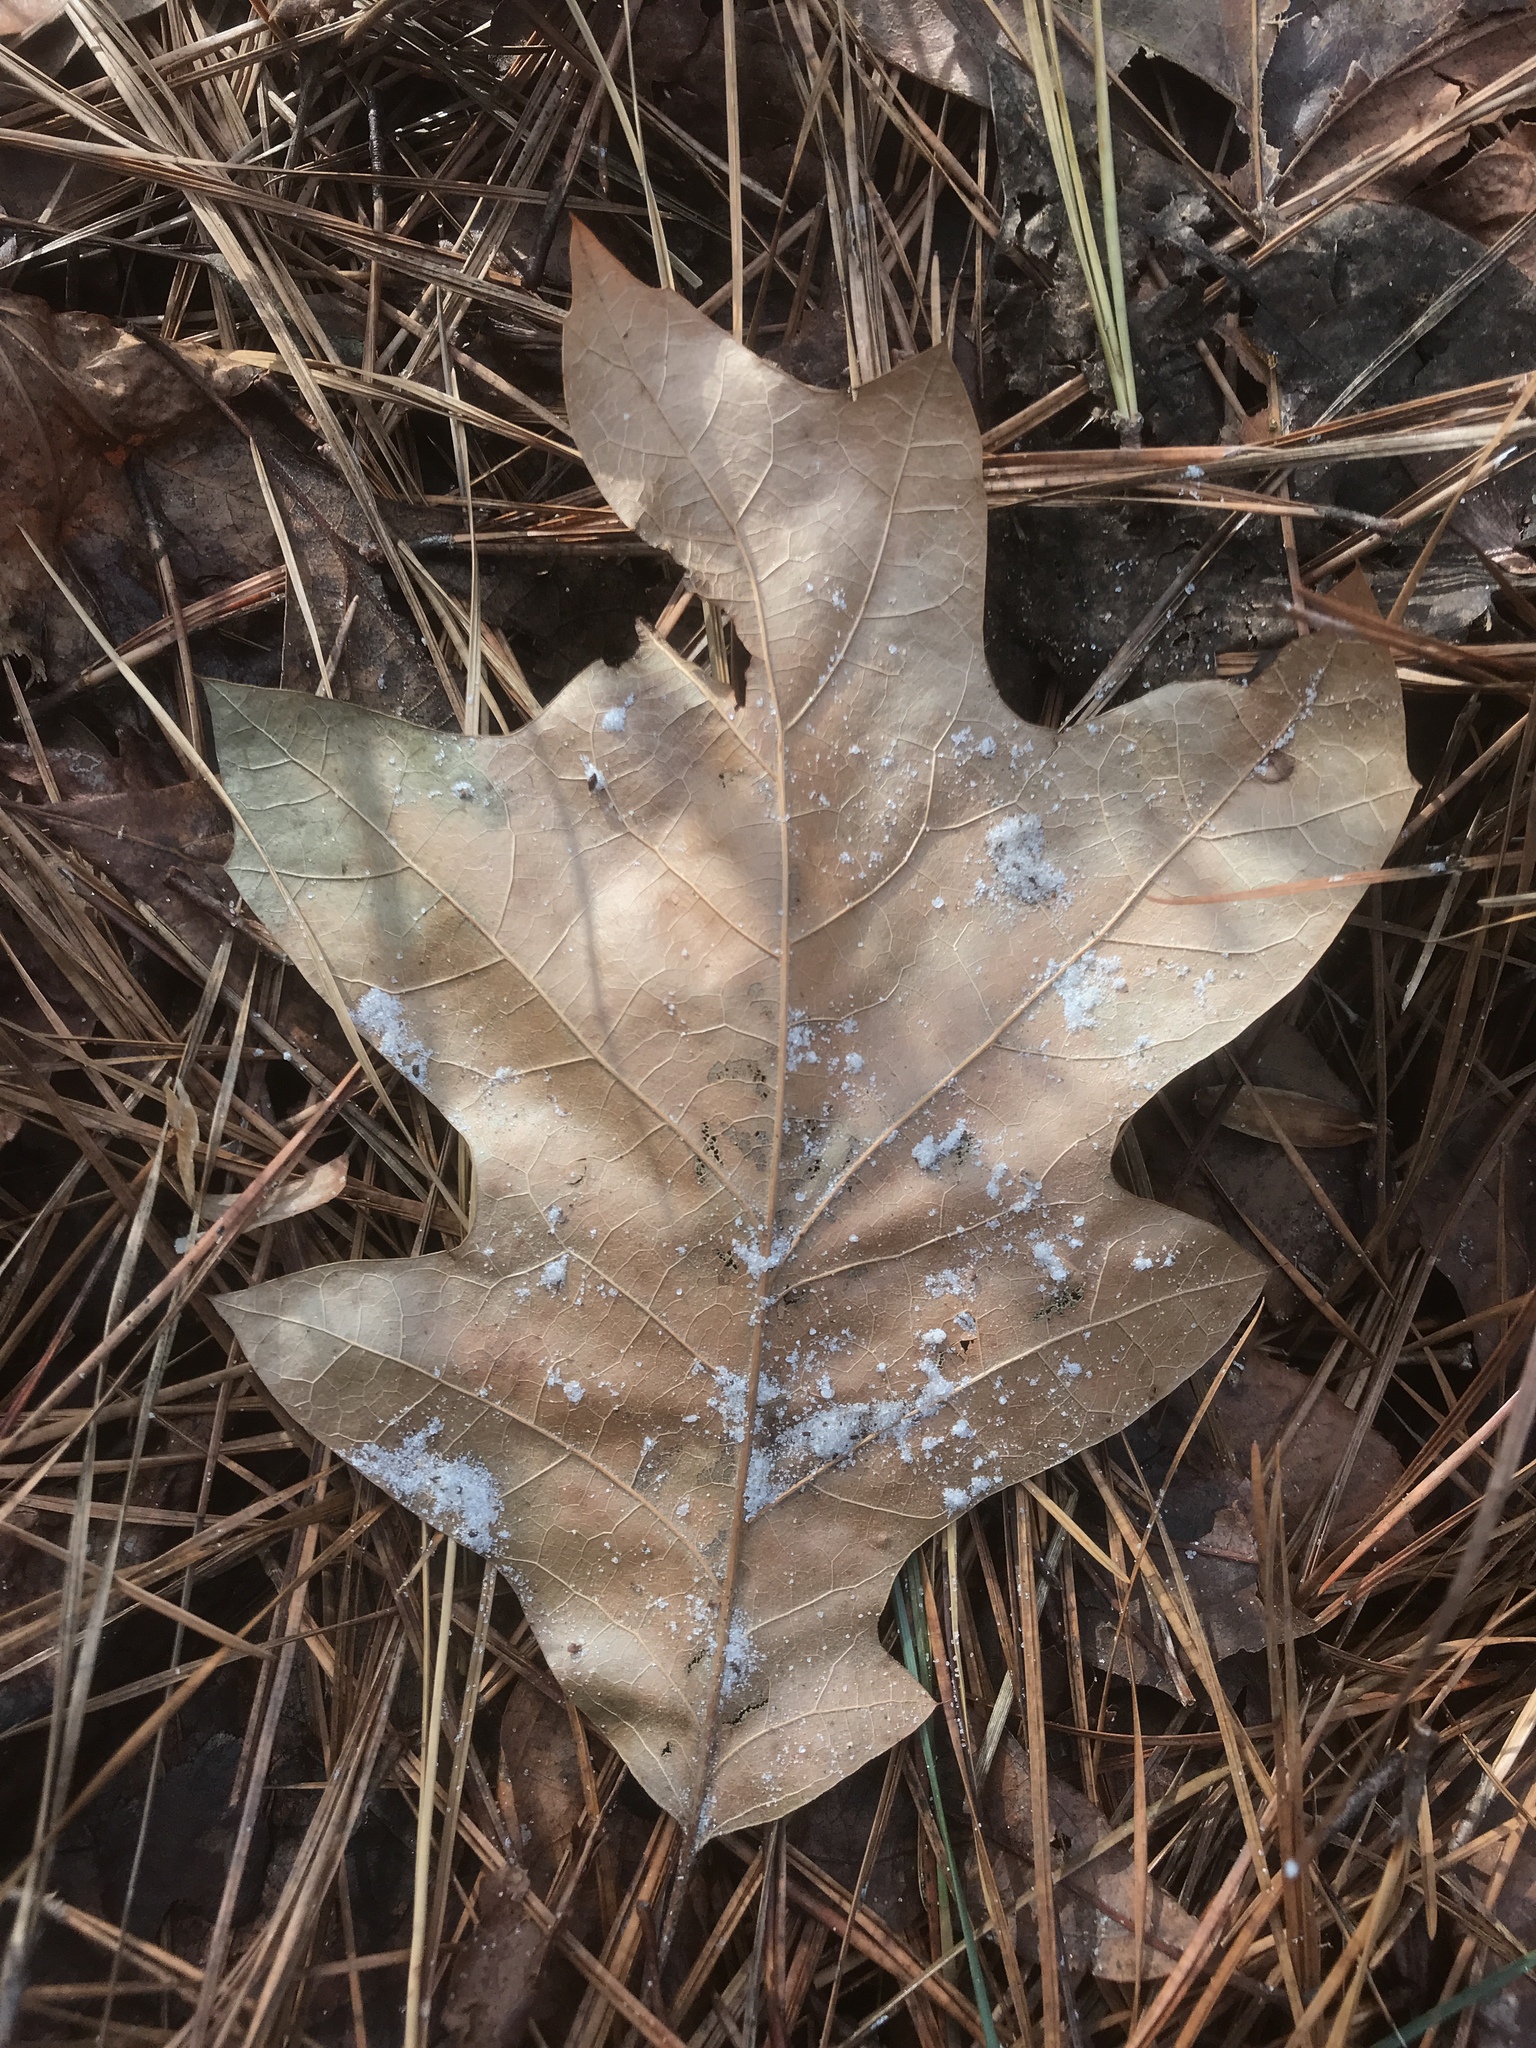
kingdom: Plantae
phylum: Tracheophyta
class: Magnoliopsida
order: Fagales
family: Fagaceae
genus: Quercus
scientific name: Quercus velutina
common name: Black oak
